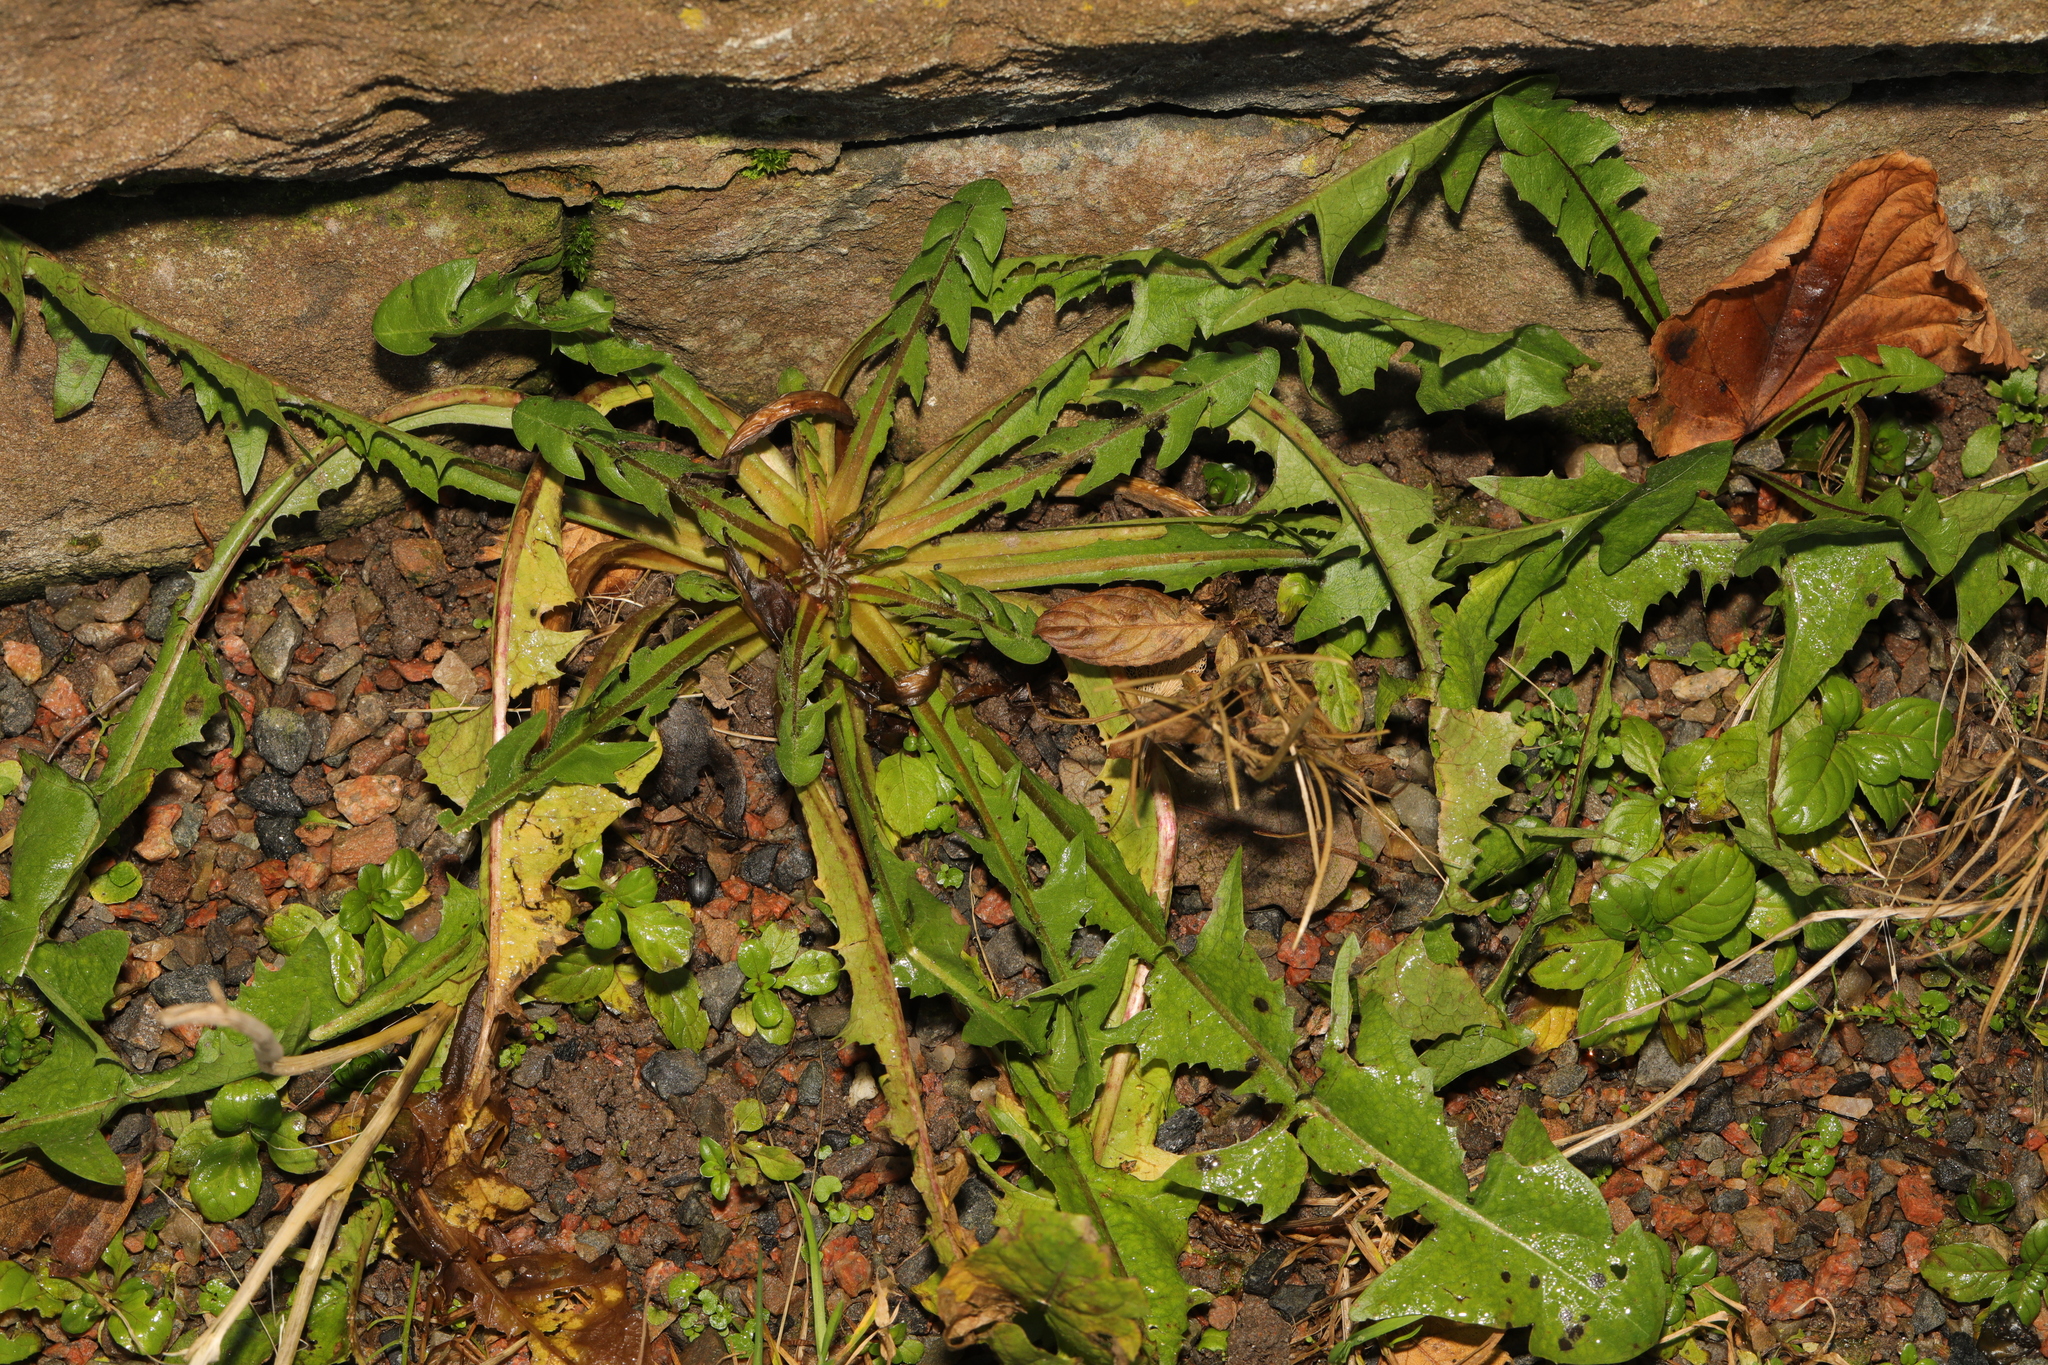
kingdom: Plantae
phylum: Tracheophyta
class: Magnoliopsida
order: Asterales
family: Asteraceae
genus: Taraxacum
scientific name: Taraxacum officinale
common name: Common dandelion
